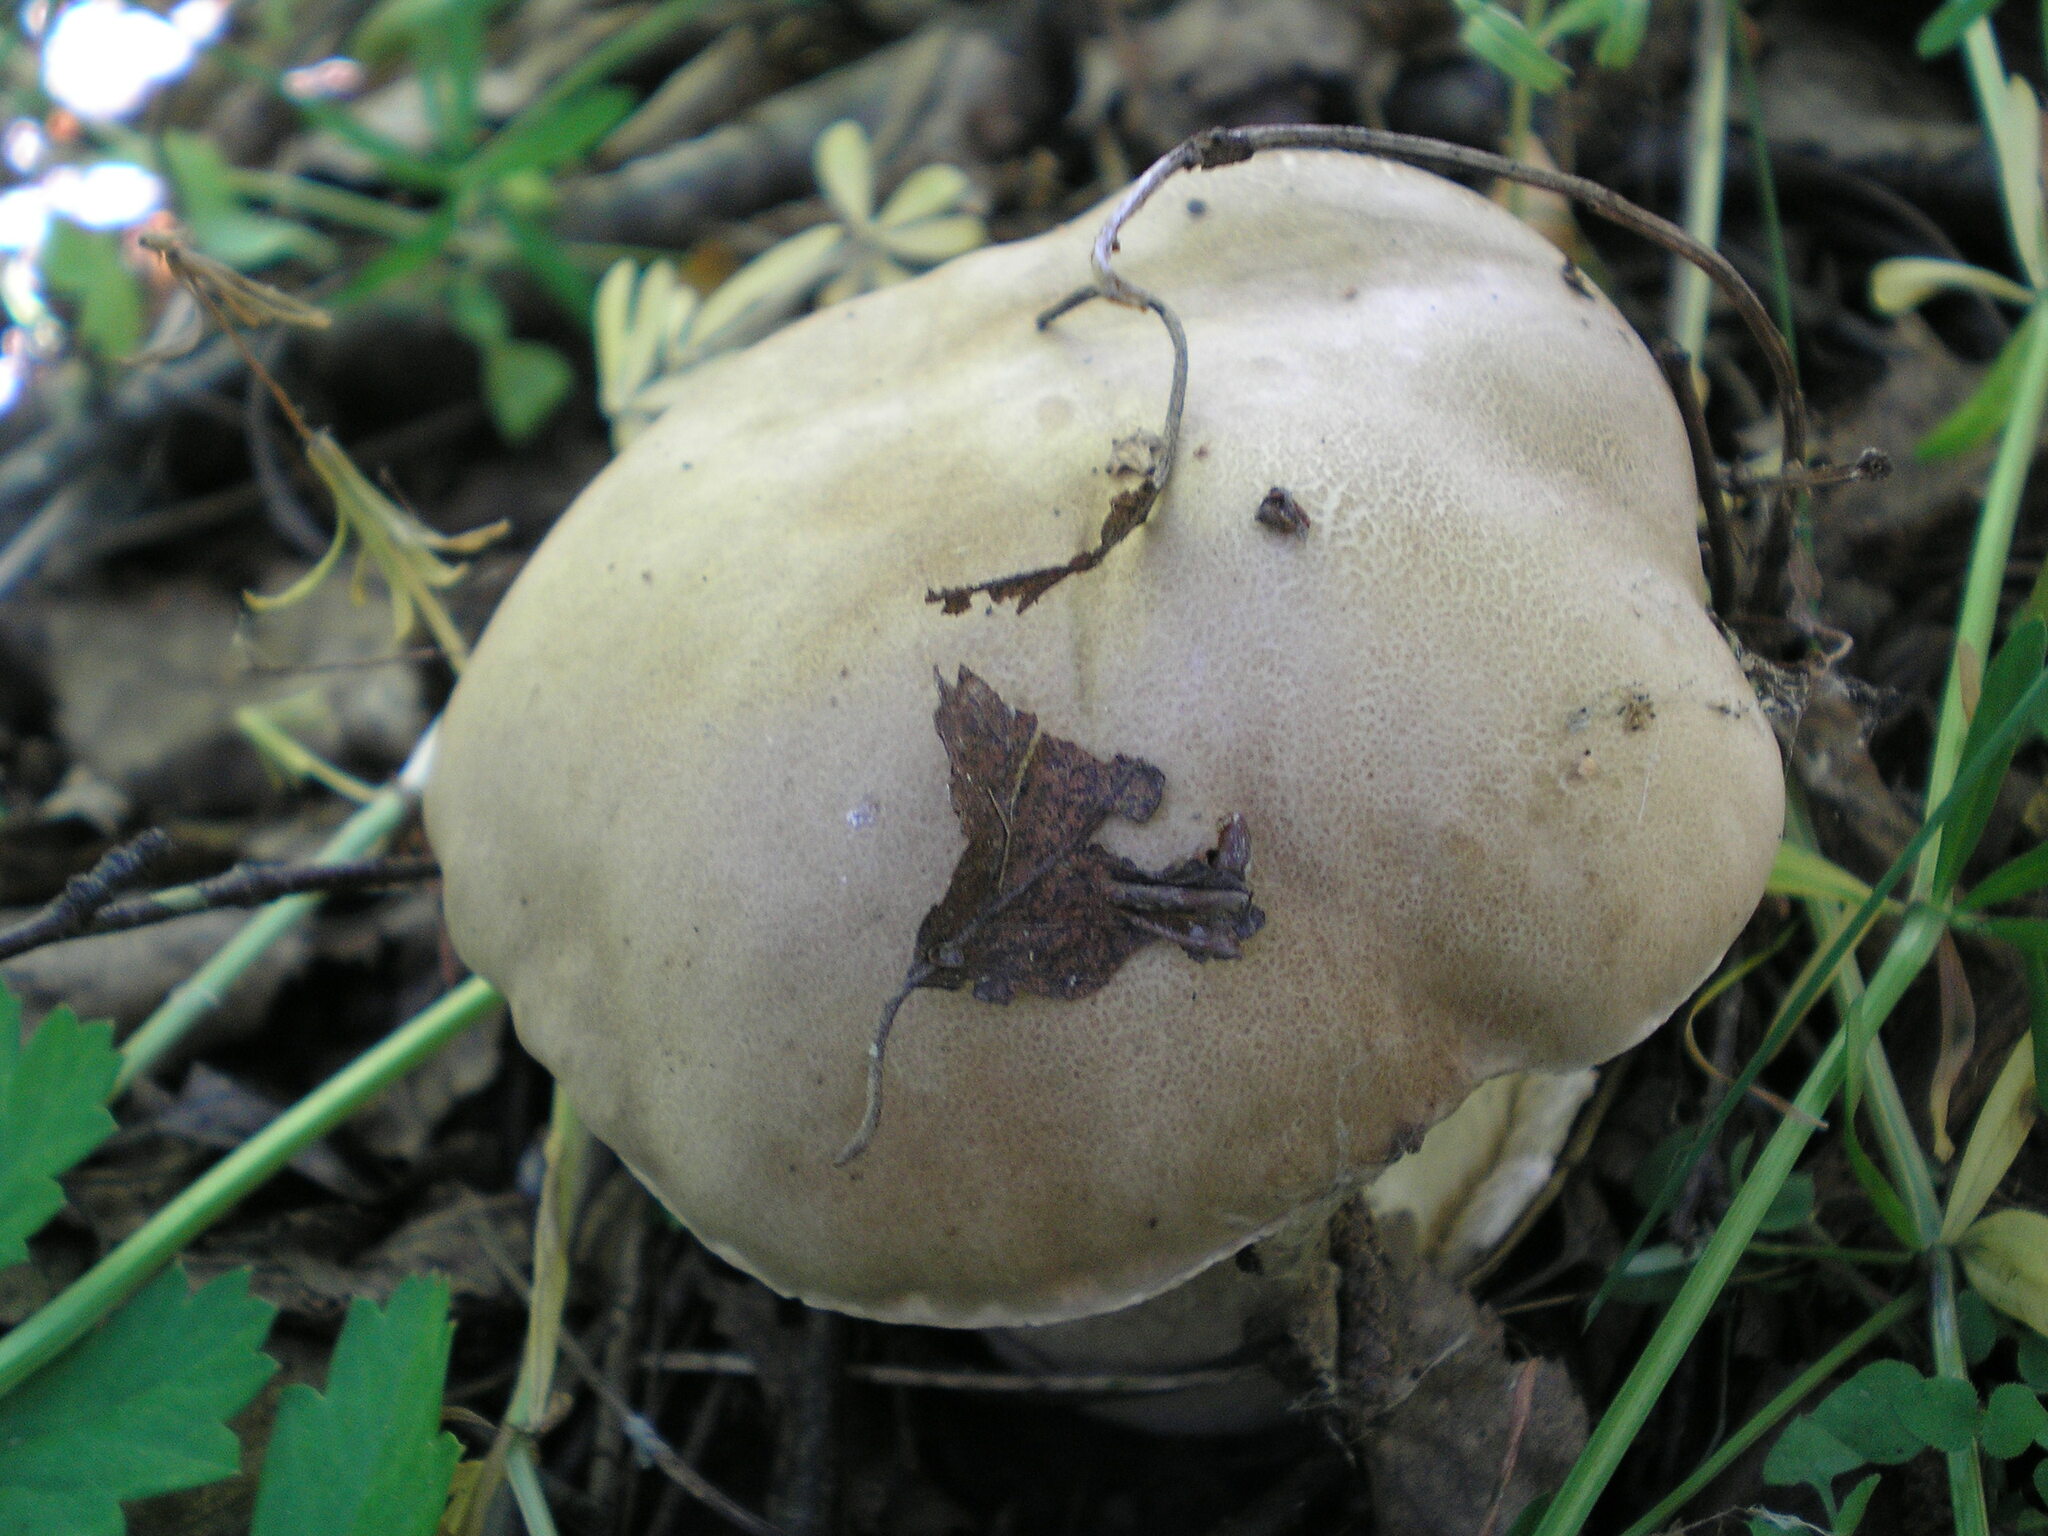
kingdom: Fungi
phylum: Basidiomycota
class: Agaricomycetes
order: Boletales
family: Boletaceae
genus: Boletus
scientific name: Boletus edulis
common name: Cep
